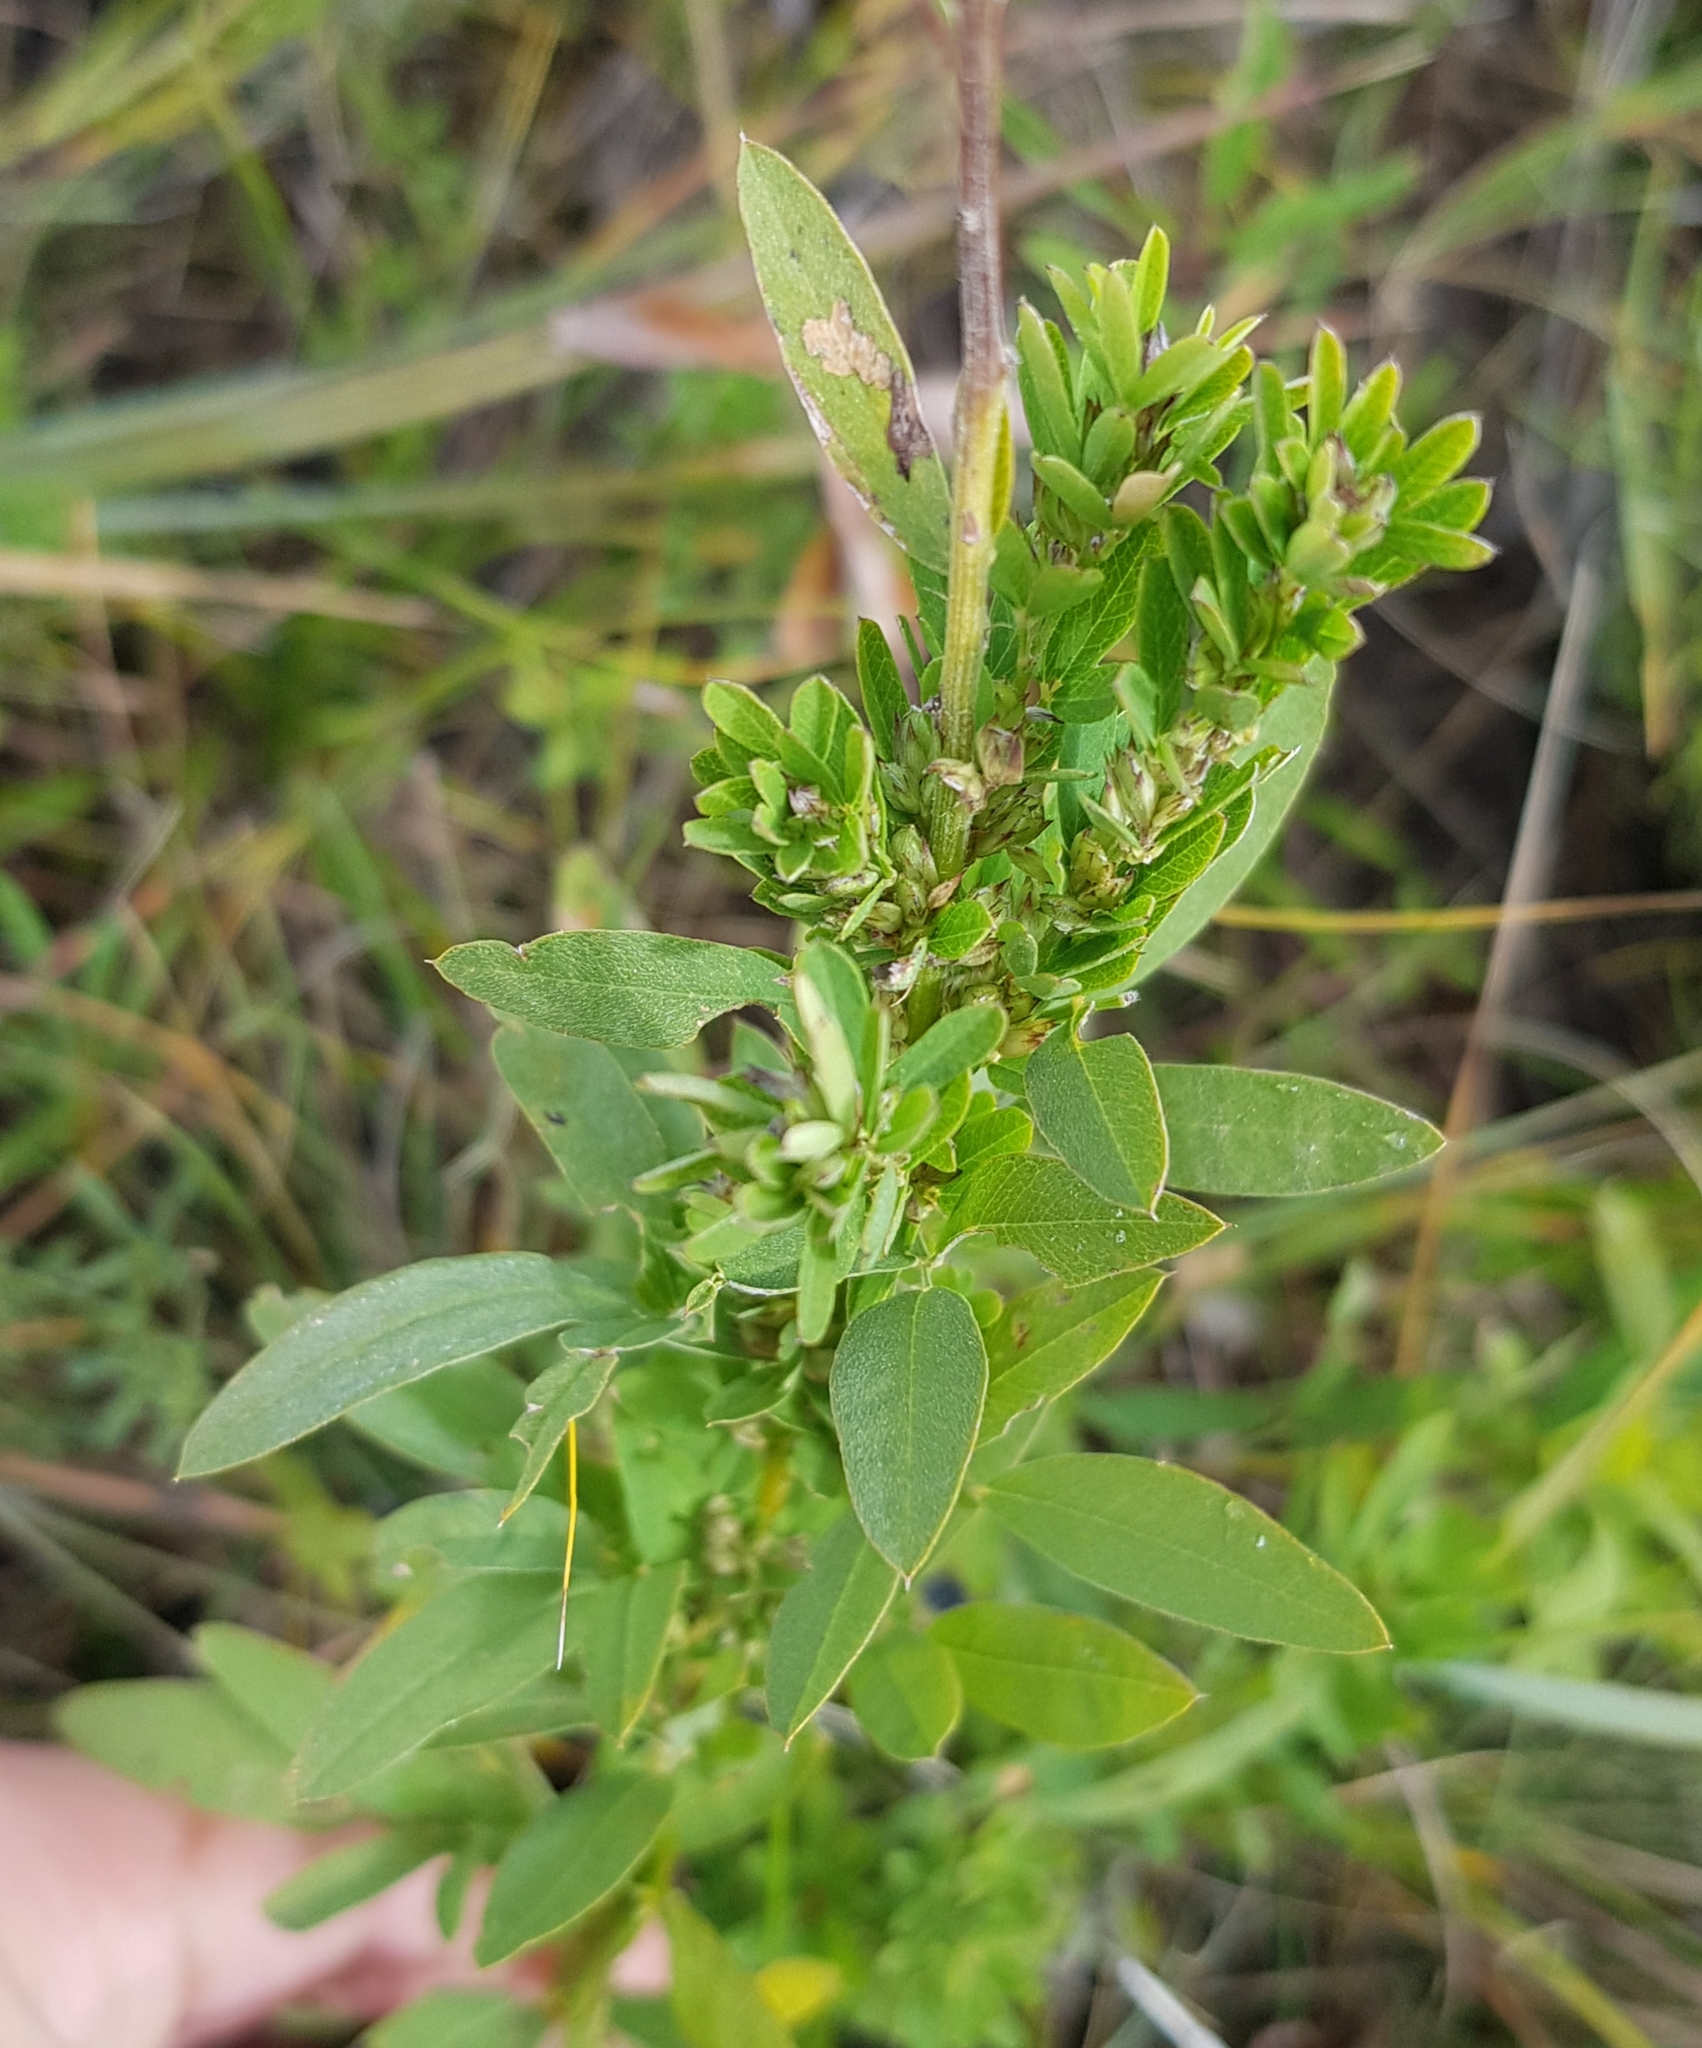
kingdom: Plantae
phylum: Tracheophyta
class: Magnoliopsida
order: Fabales
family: Fabaceae
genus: Lespedeza
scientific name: Lespedeza juncea
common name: Siberian lespedeza
